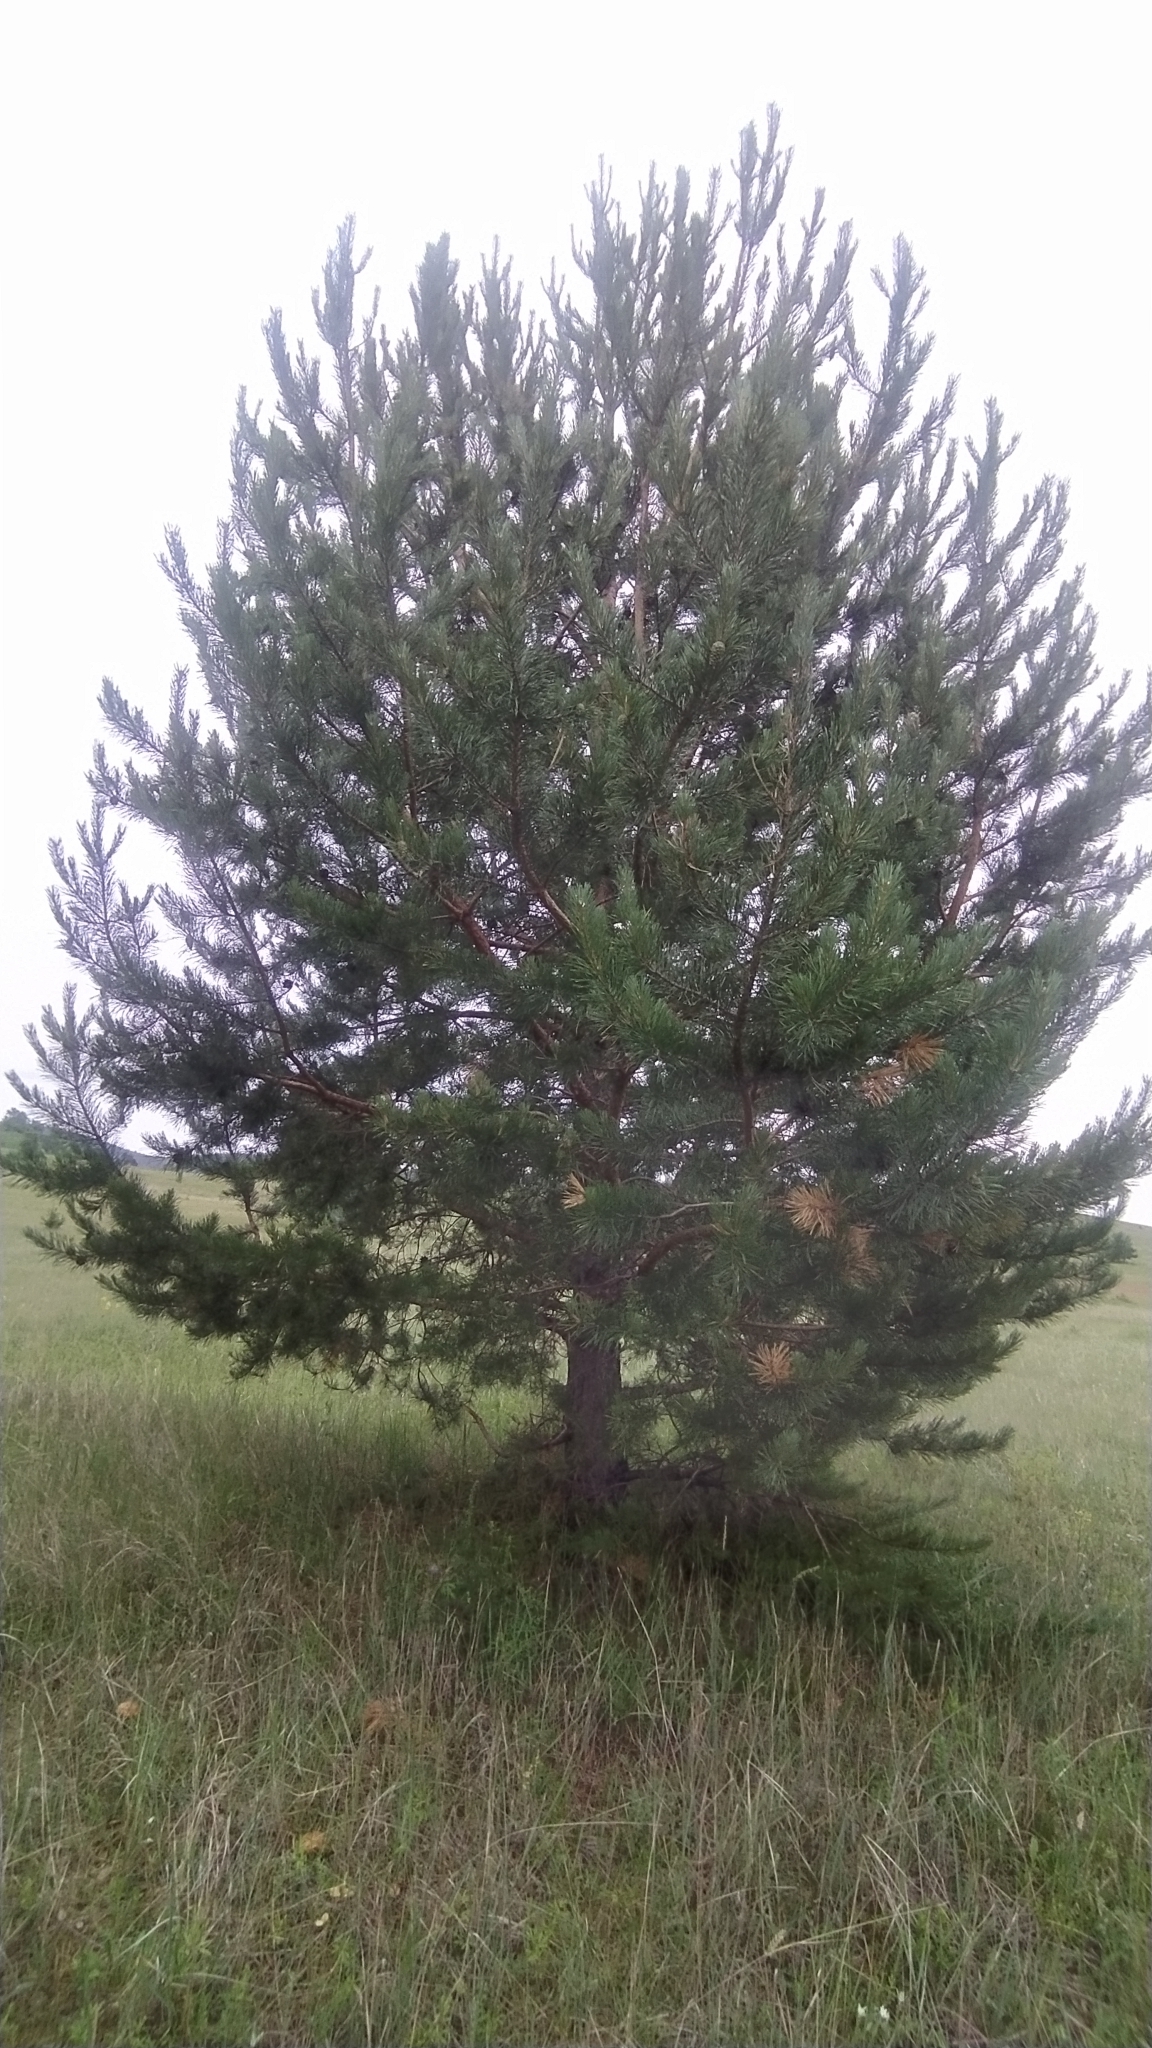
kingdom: Plantae
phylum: Tracheophyta
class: Pinopsida
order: Pinales
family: Pinaceae
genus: Pinus
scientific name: Pinus sylvestris
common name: Scots pine
